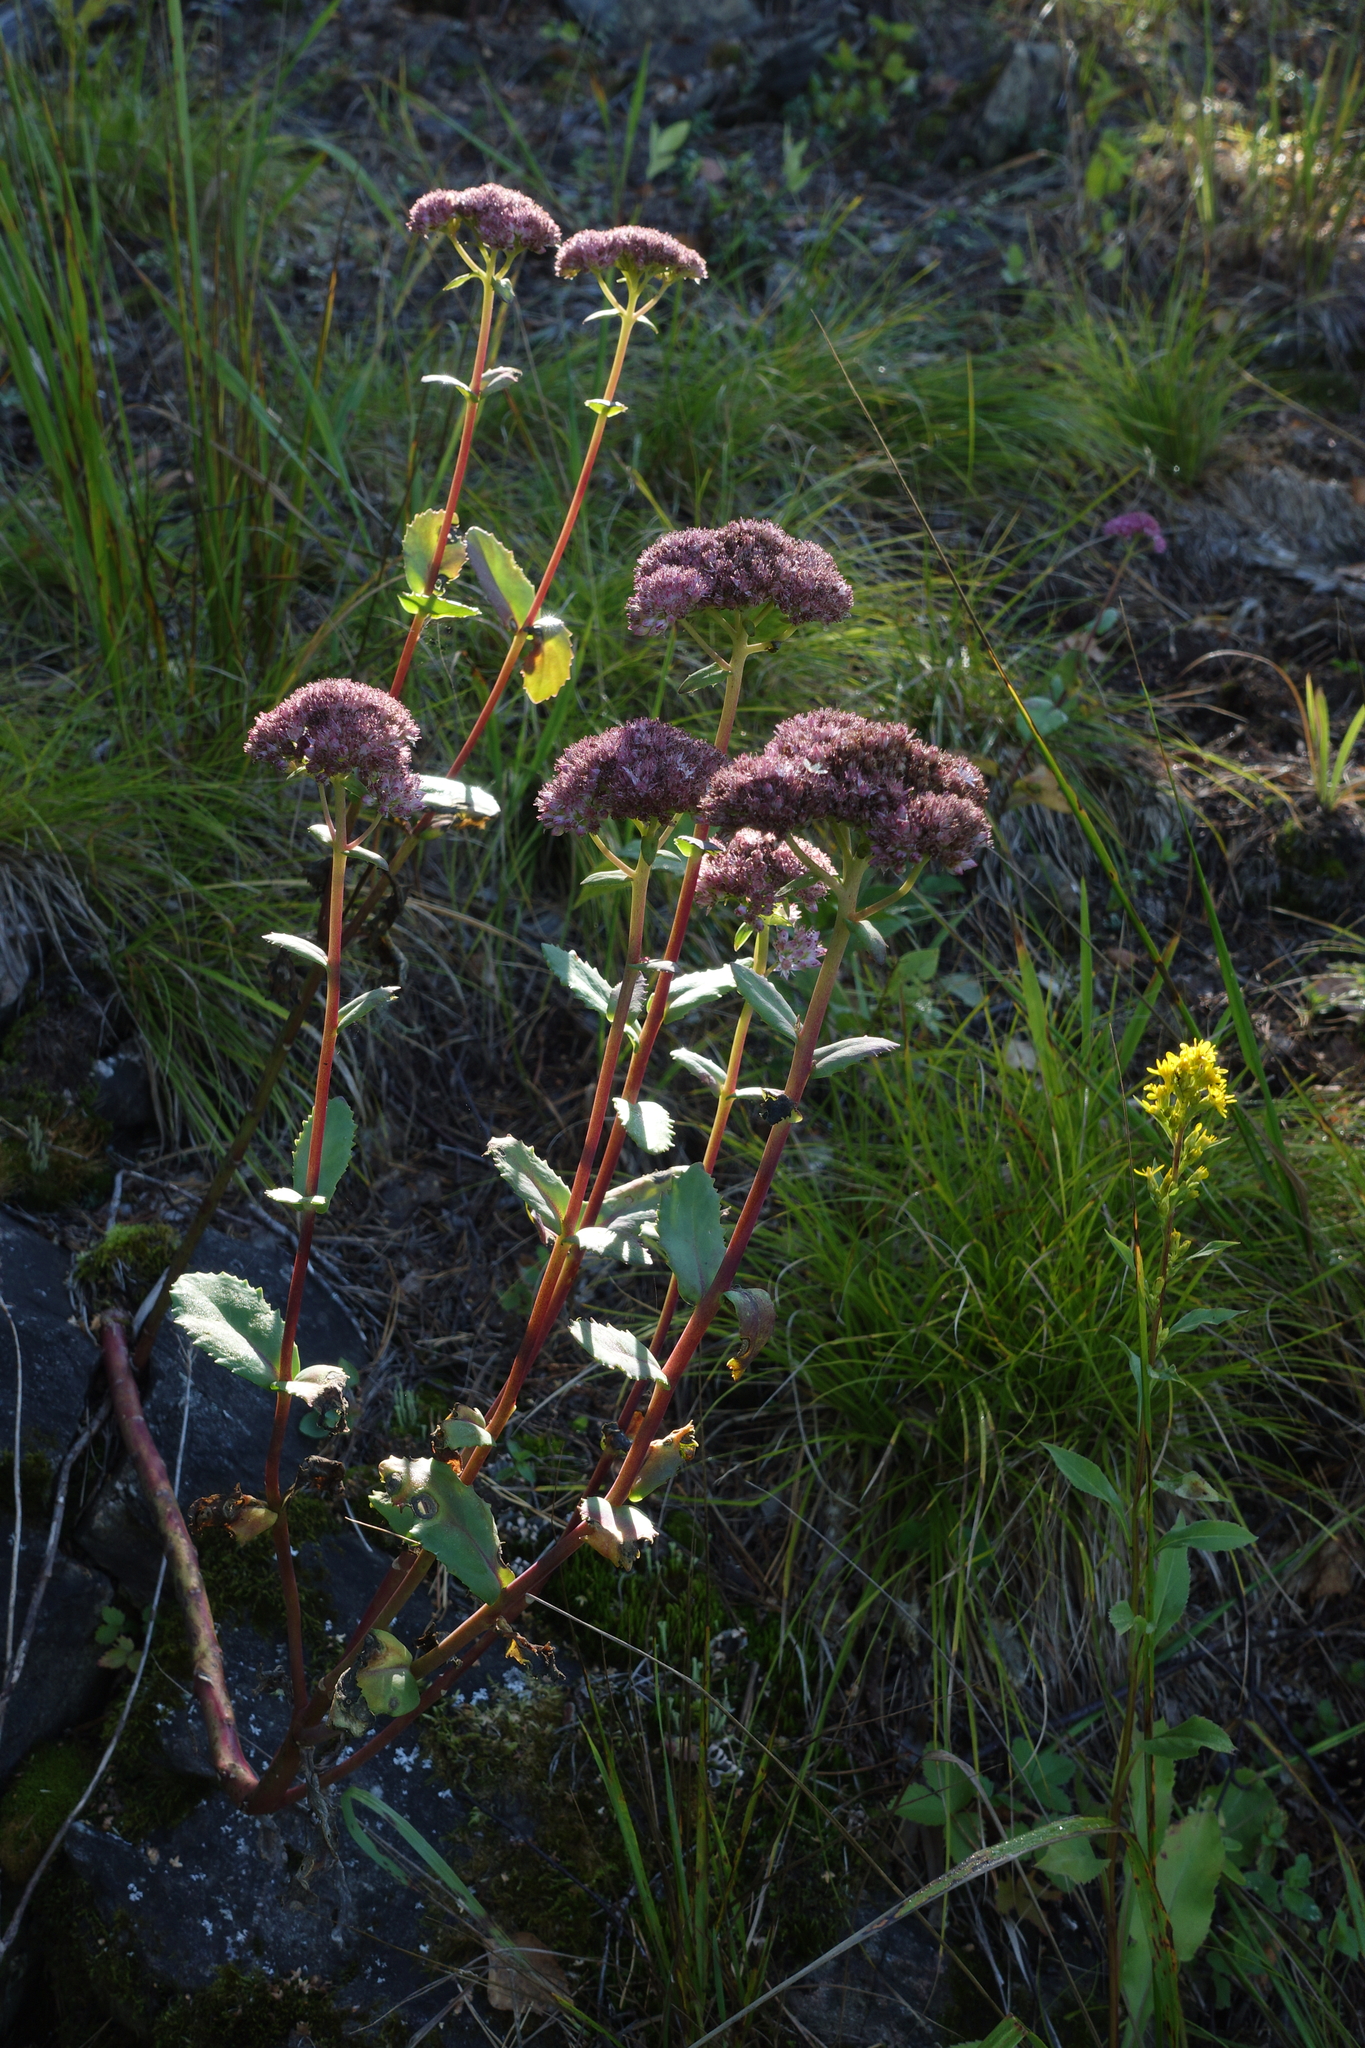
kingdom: Plantae
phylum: Tracheophyta
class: Magnoliopsida
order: Saxifragales
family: Crassulaceae
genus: Hylotelephium
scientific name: Hylotelephium telephium
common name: Live-forever
